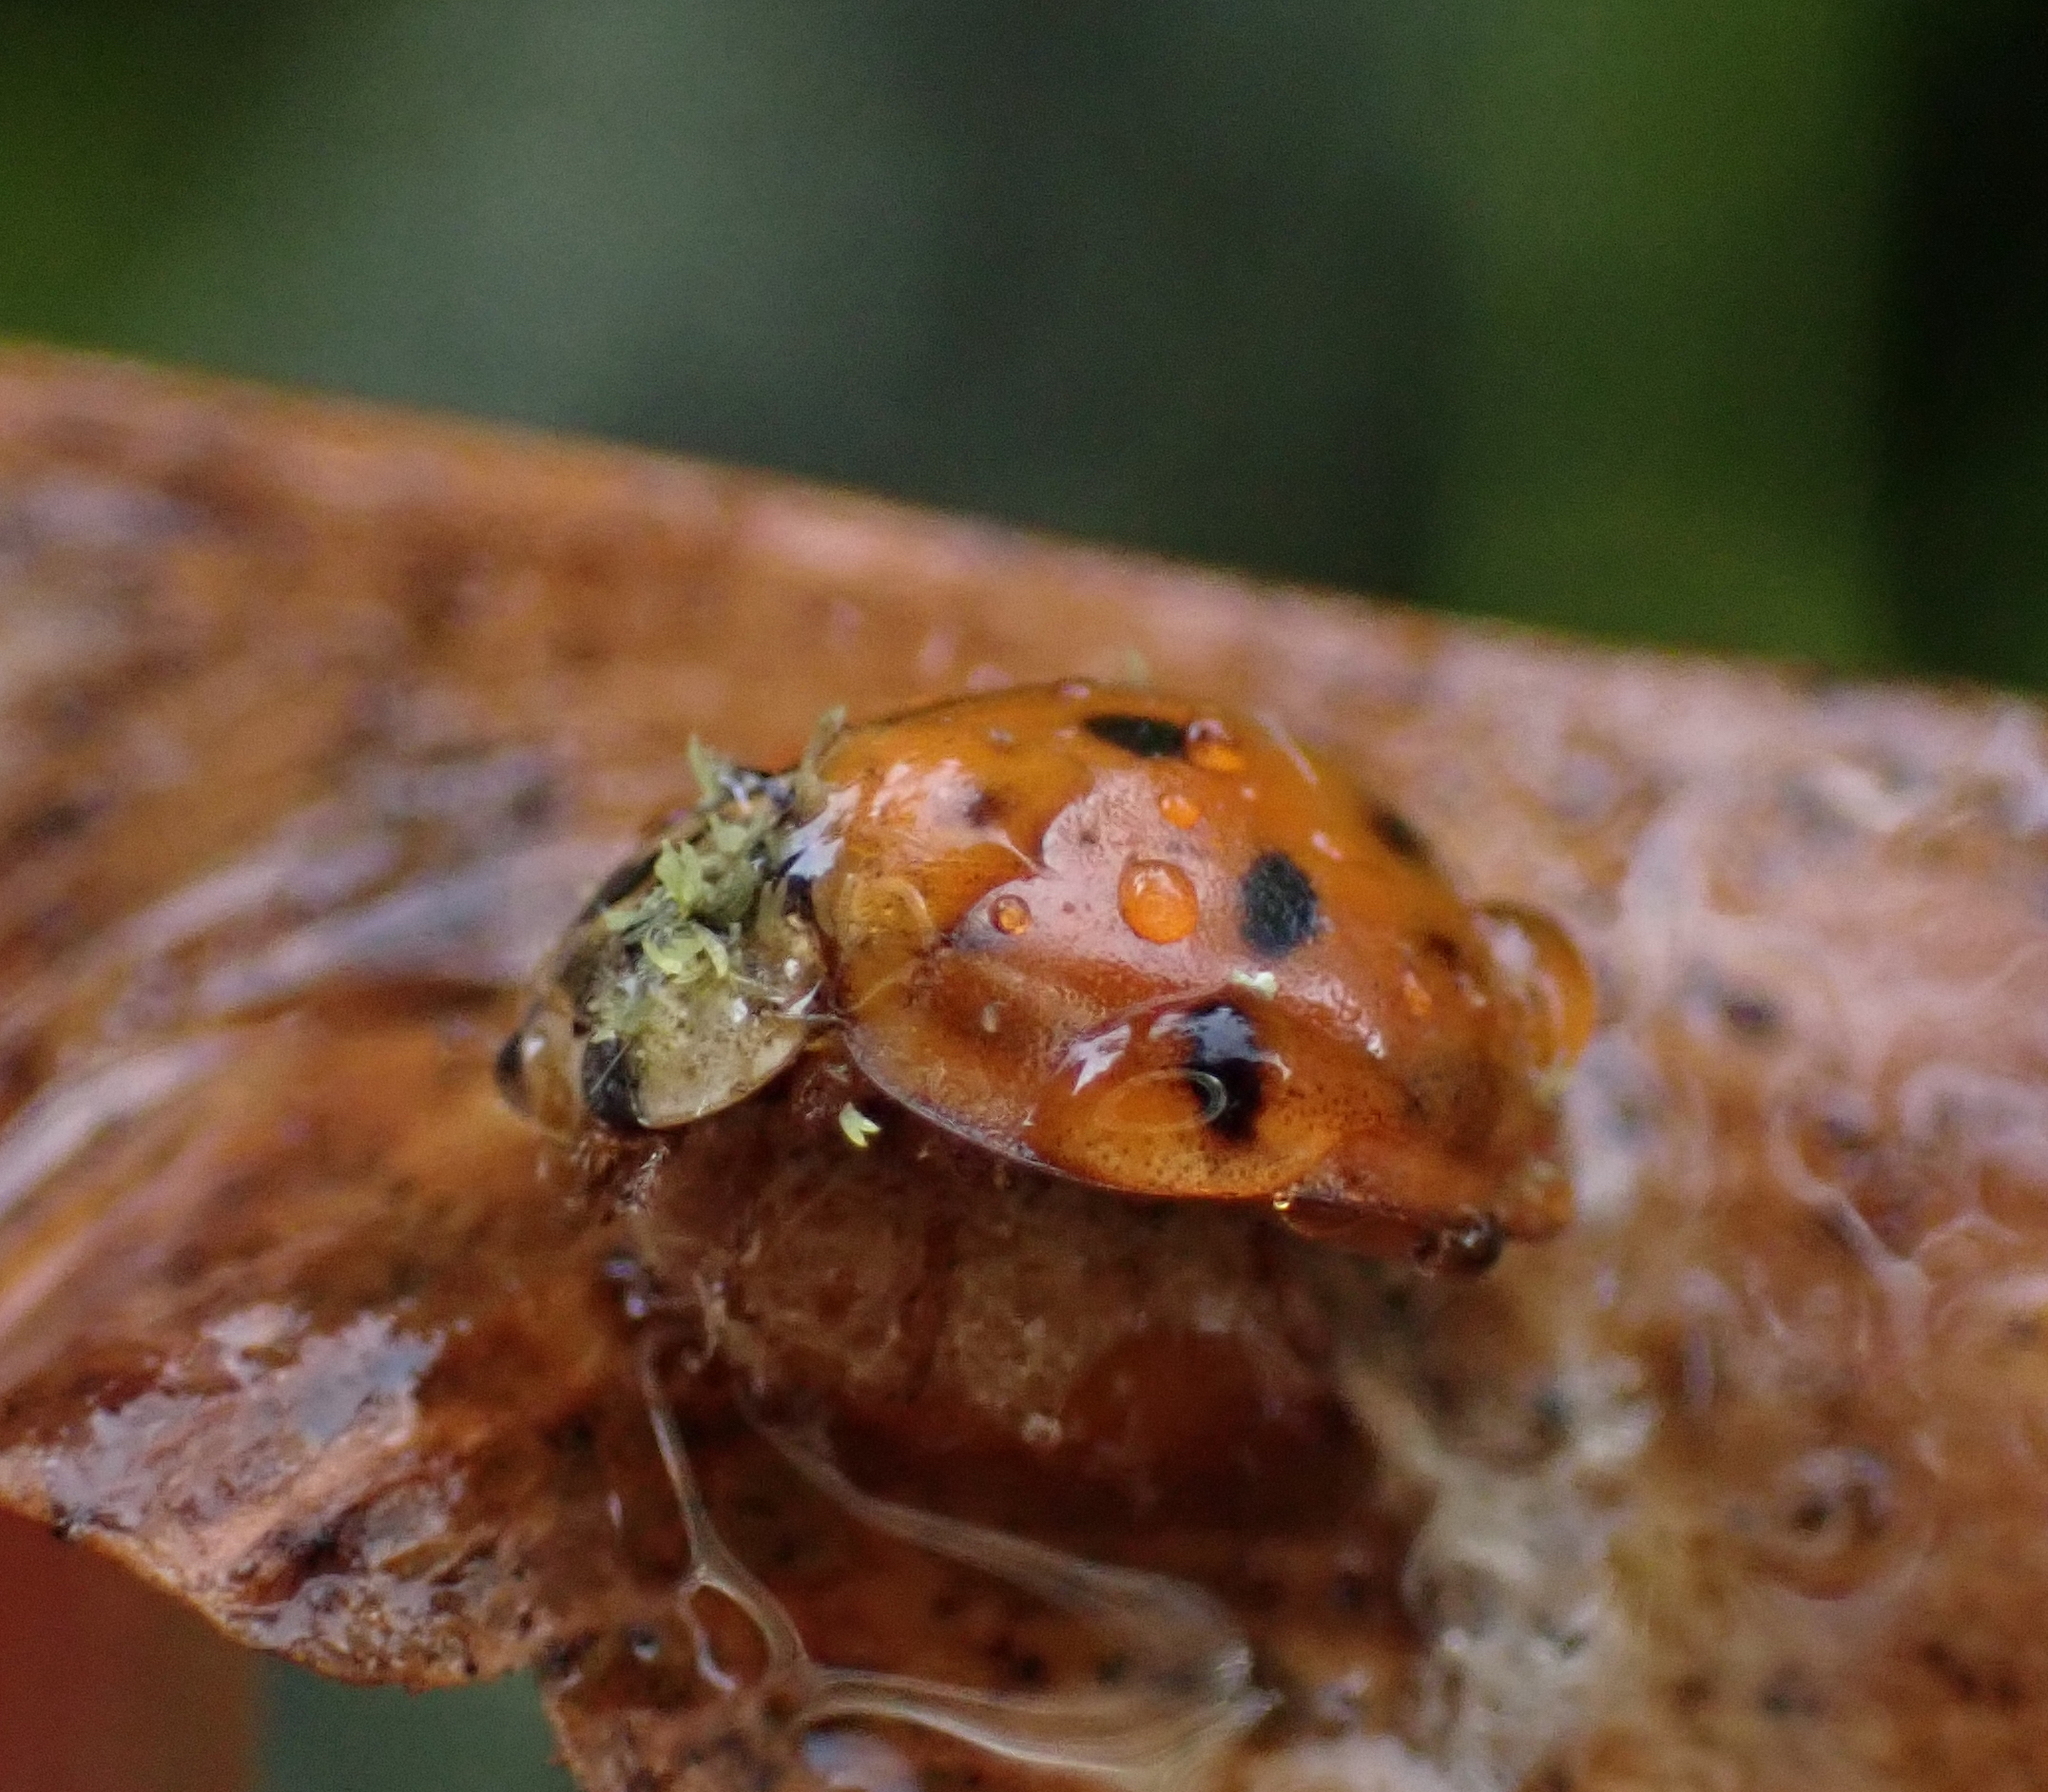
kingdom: Animalia
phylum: Arthropoda
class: Insecta
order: Hymenoptera
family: Braconidae
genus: Dinocampus
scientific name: Dinocampus coccinellae
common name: Braconid wasp
